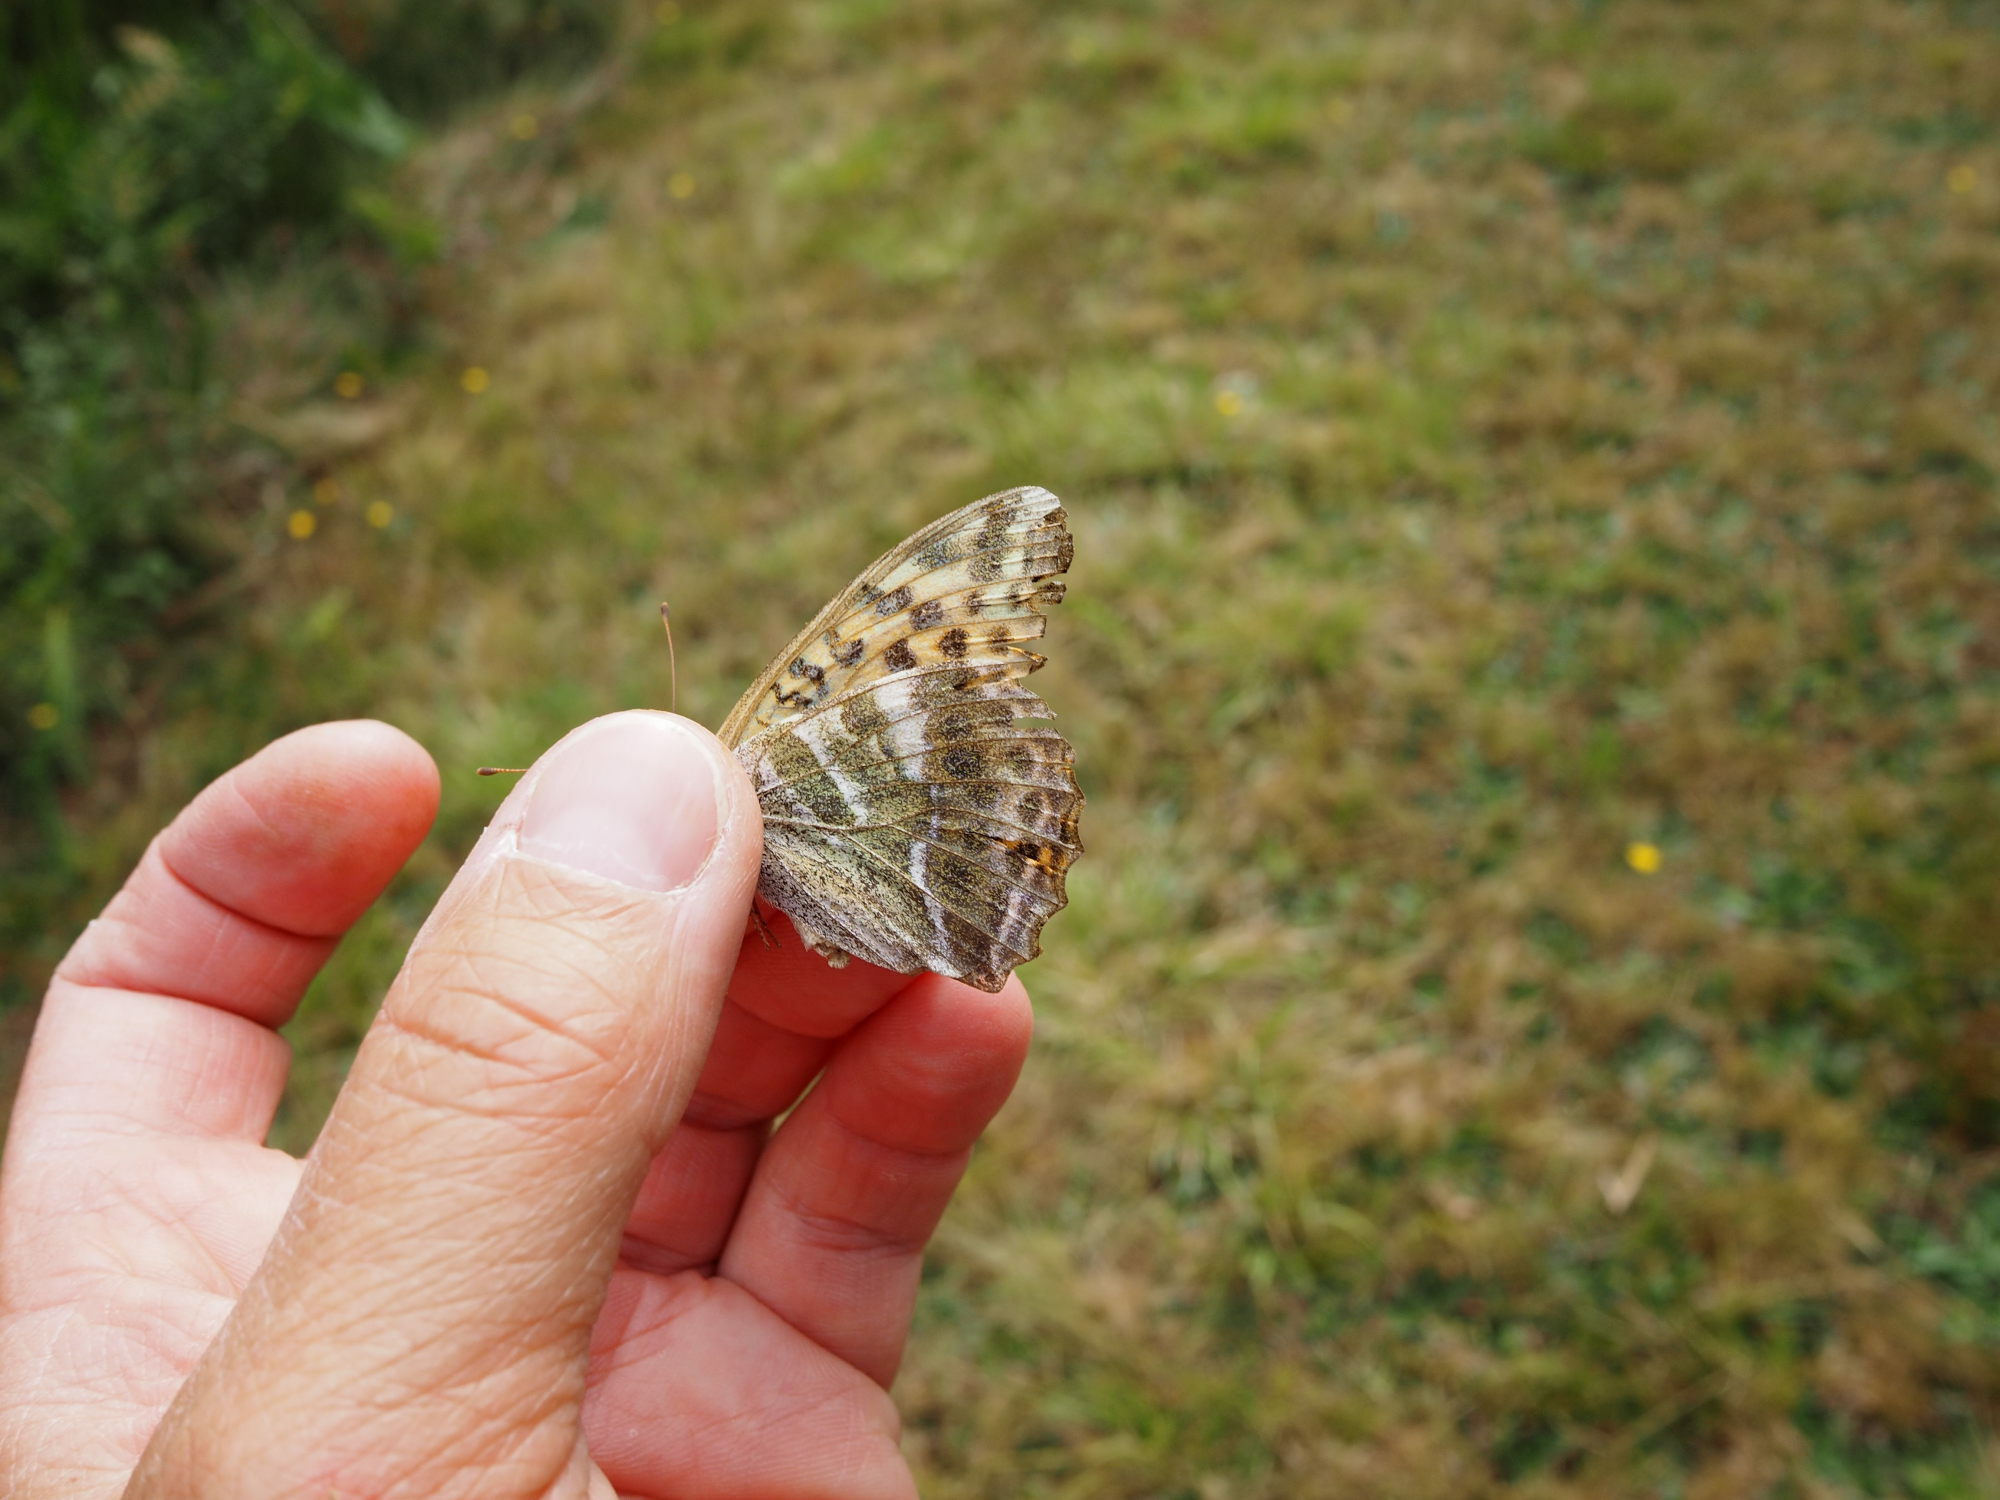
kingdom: Animalia
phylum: Arthropoda
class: Insecta
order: Lepidoptera
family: Nymphalidae
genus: Argynnis
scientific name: Argynnis paphia
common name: Silver-washed fritillary
